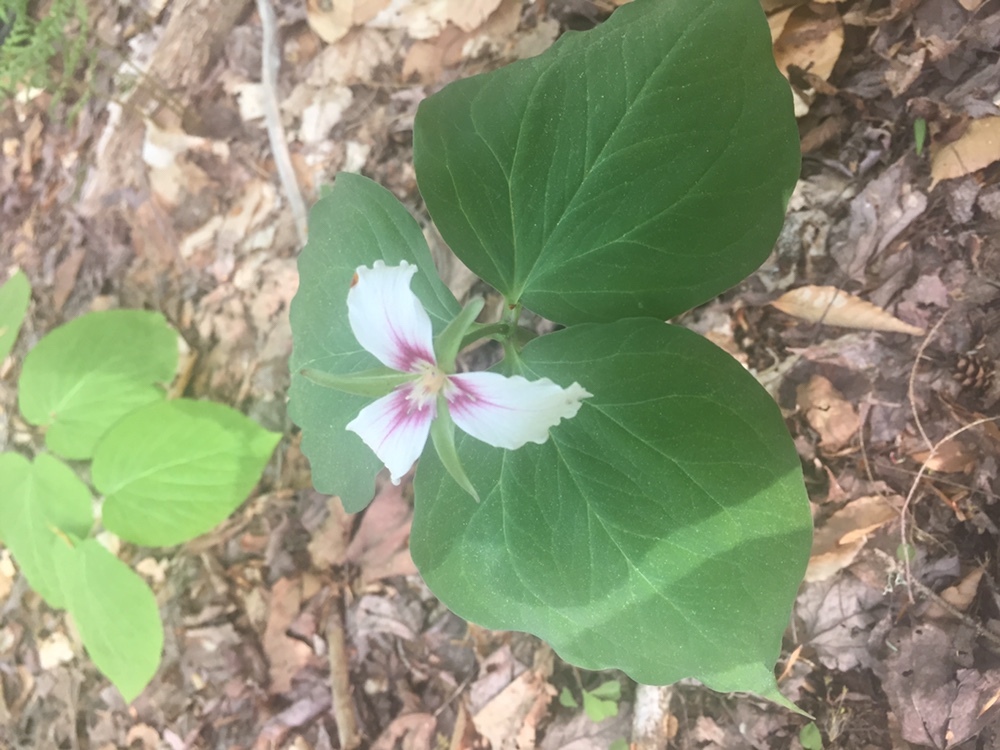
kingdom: Plantae
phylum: Tracheophyta
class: Liliopsida
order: Liliales
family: Melanthiaceae
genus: Trillium
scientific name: Trillium undulatum
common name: Paint trillium
